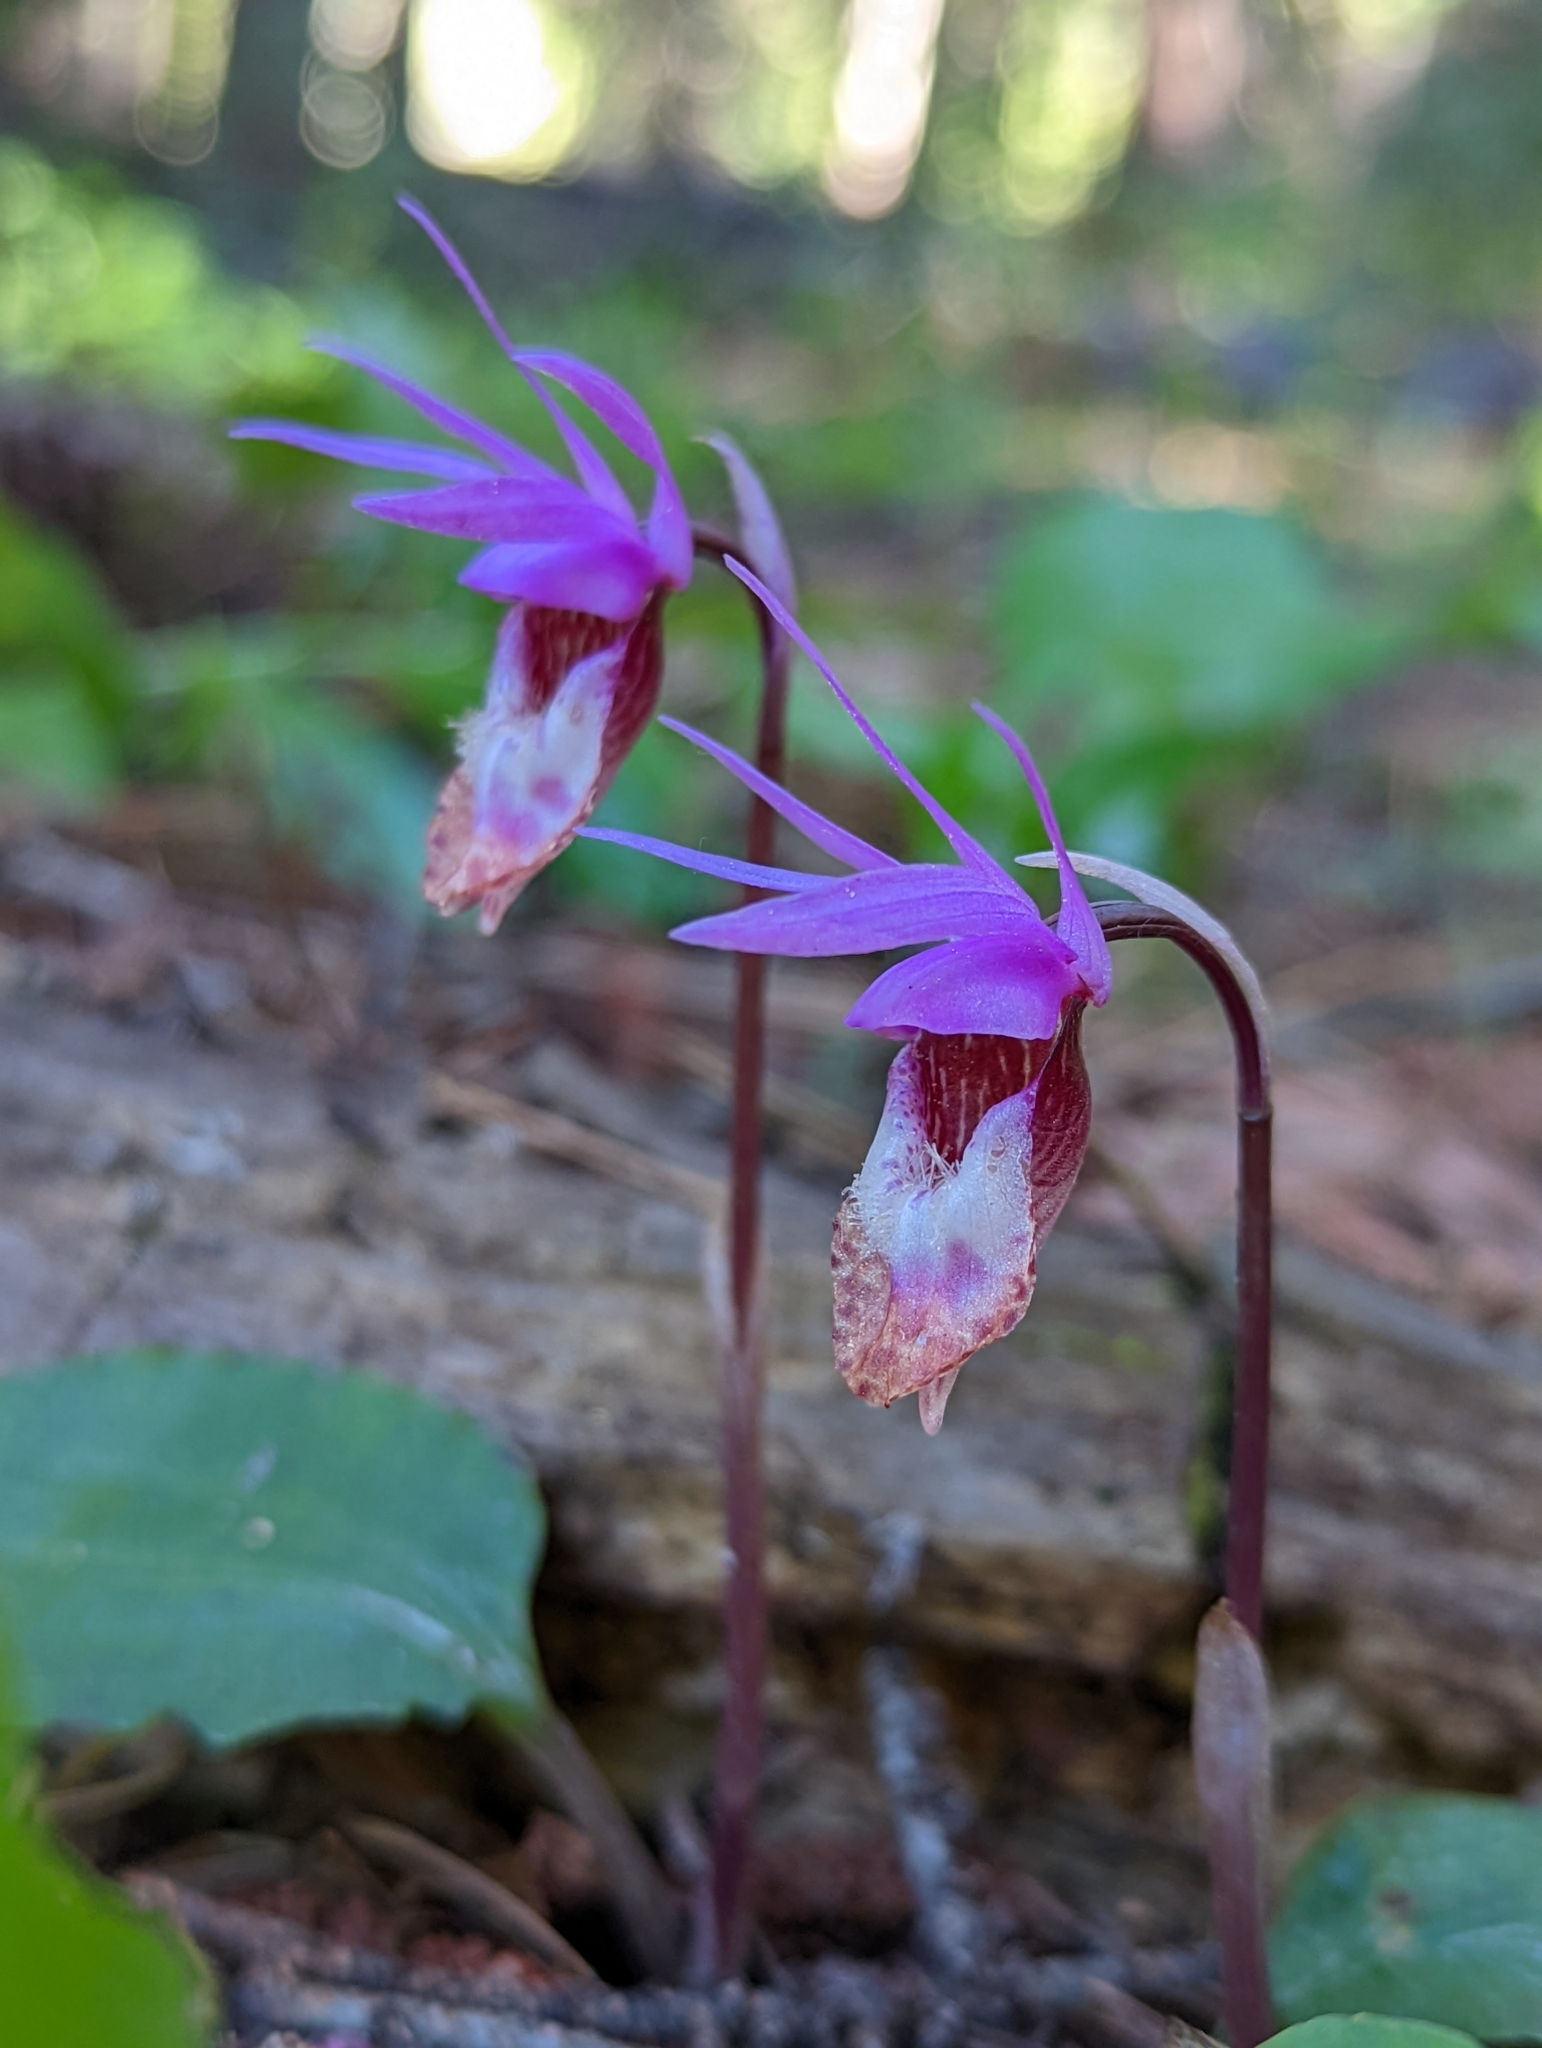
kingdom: Plantae
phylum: Tracheophyta
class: Liliopsida
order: Asparagales
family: Orchidaceae
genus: Calypso
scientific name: Calypso bulbosa
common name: Calypso
